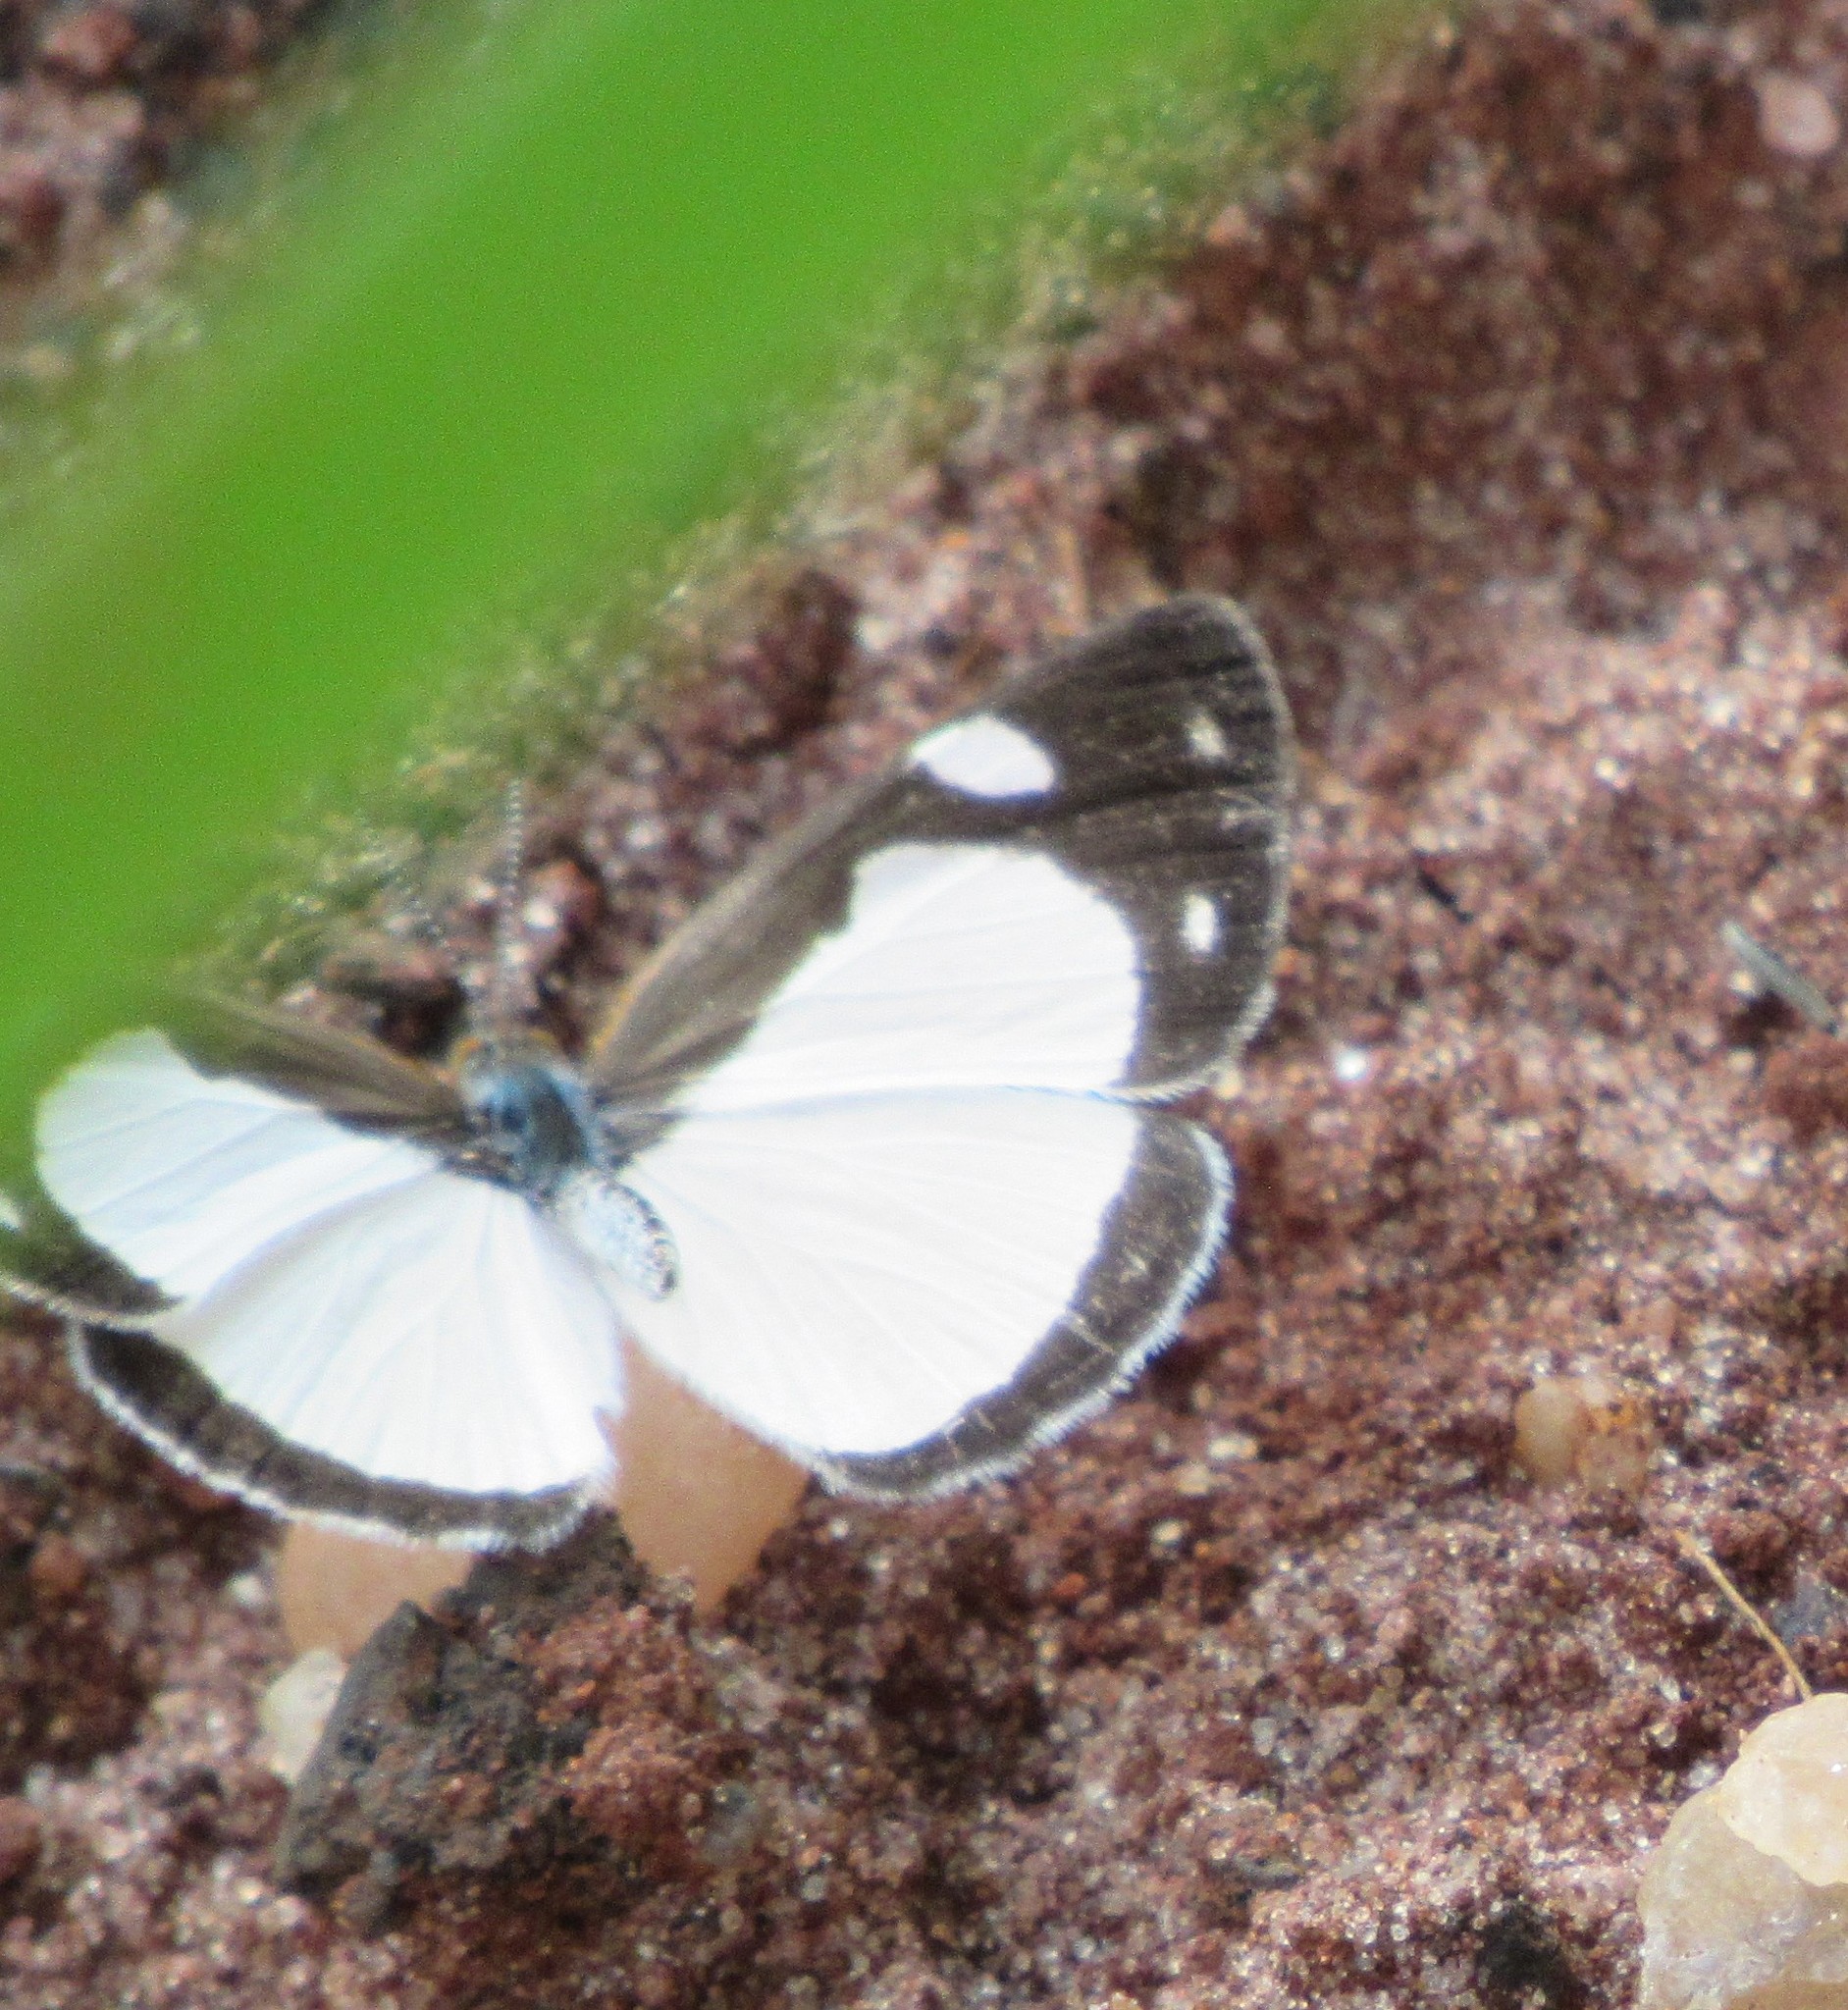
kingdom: Animalia
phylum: Arthropoda
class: Insecta
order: Lepidoptera
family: Nymphalidae
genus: Dynamine
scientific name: Dynamine agacles
